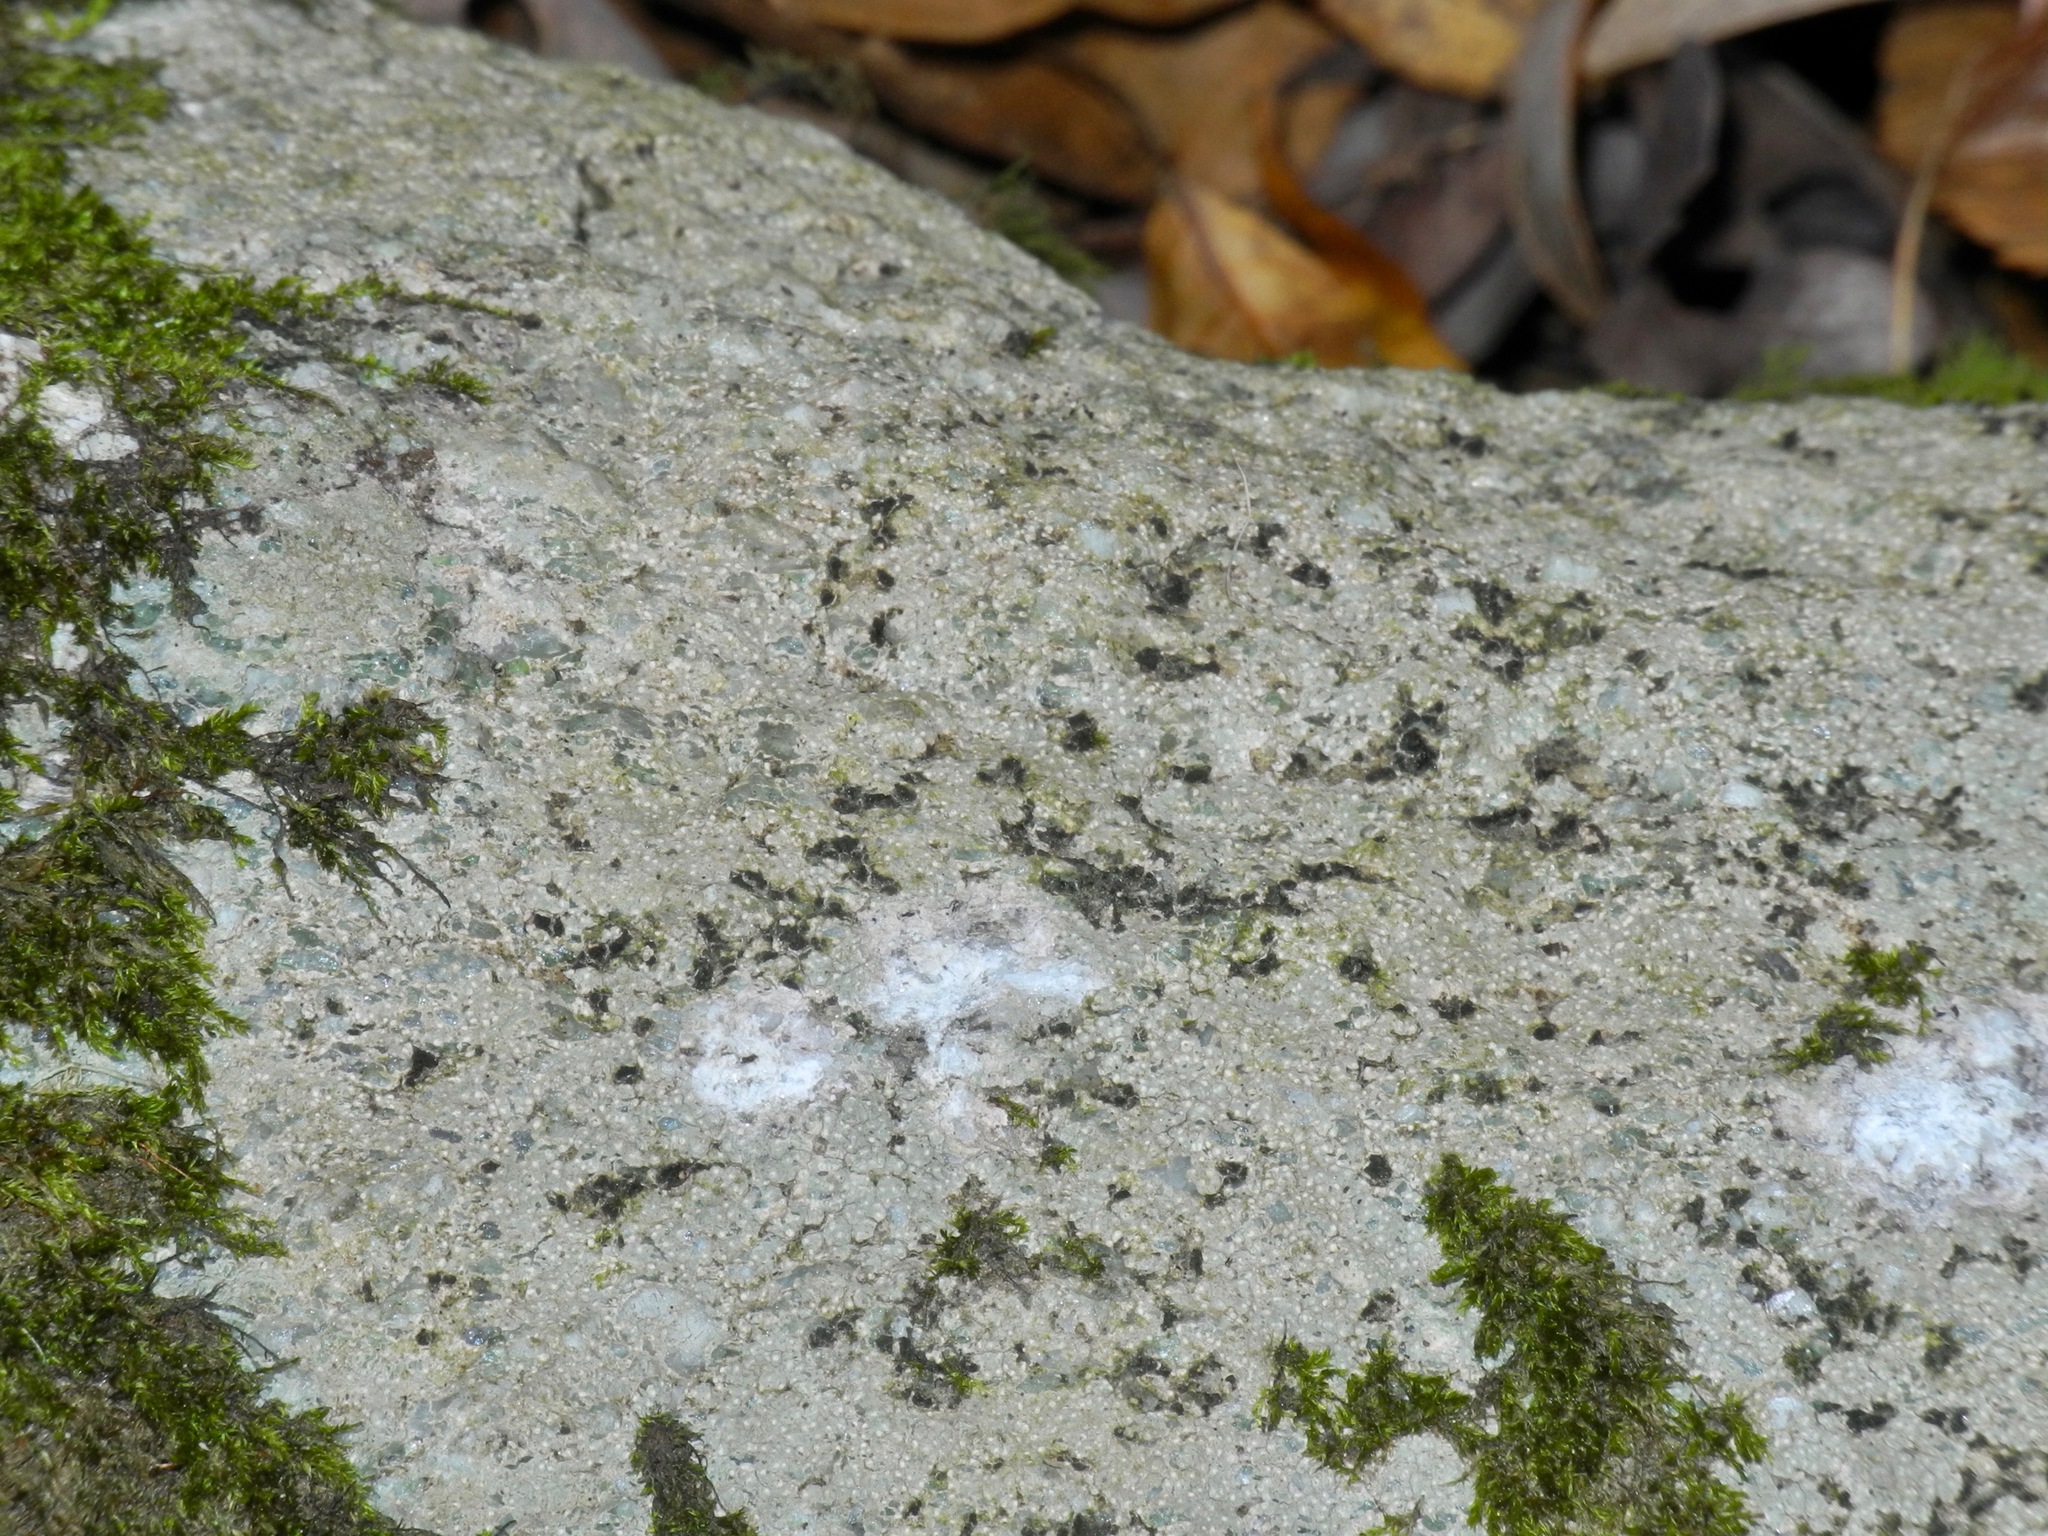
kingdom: Fungi
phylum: Ascomycota
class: Lecanoromycetes
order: Lecideales
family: Lecideaceae
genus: Porpidia
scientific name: Porpidia albocaerulescens
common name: Smokey-eyed boulder lichen
